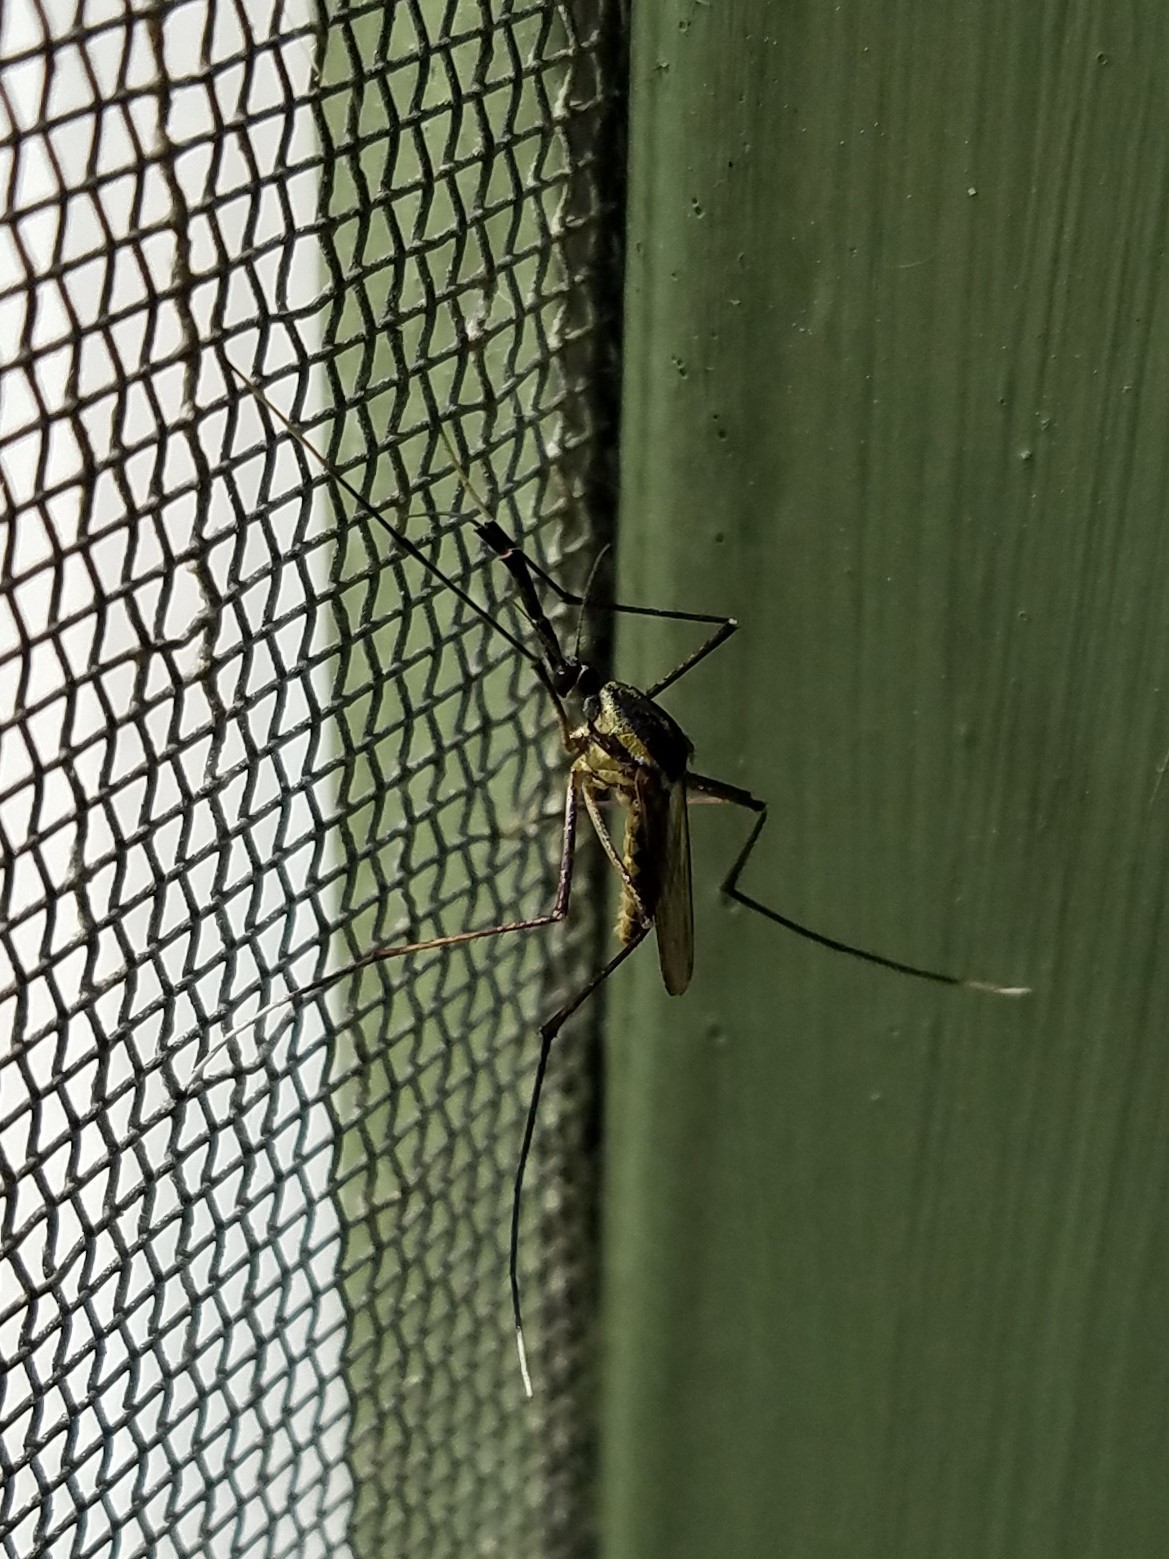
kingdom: Animalia
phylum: Arthropoda
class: Insecta
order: Diptera
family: Culicidae
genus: Toxorhynchites
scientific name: Toxorhynchites rutilus
